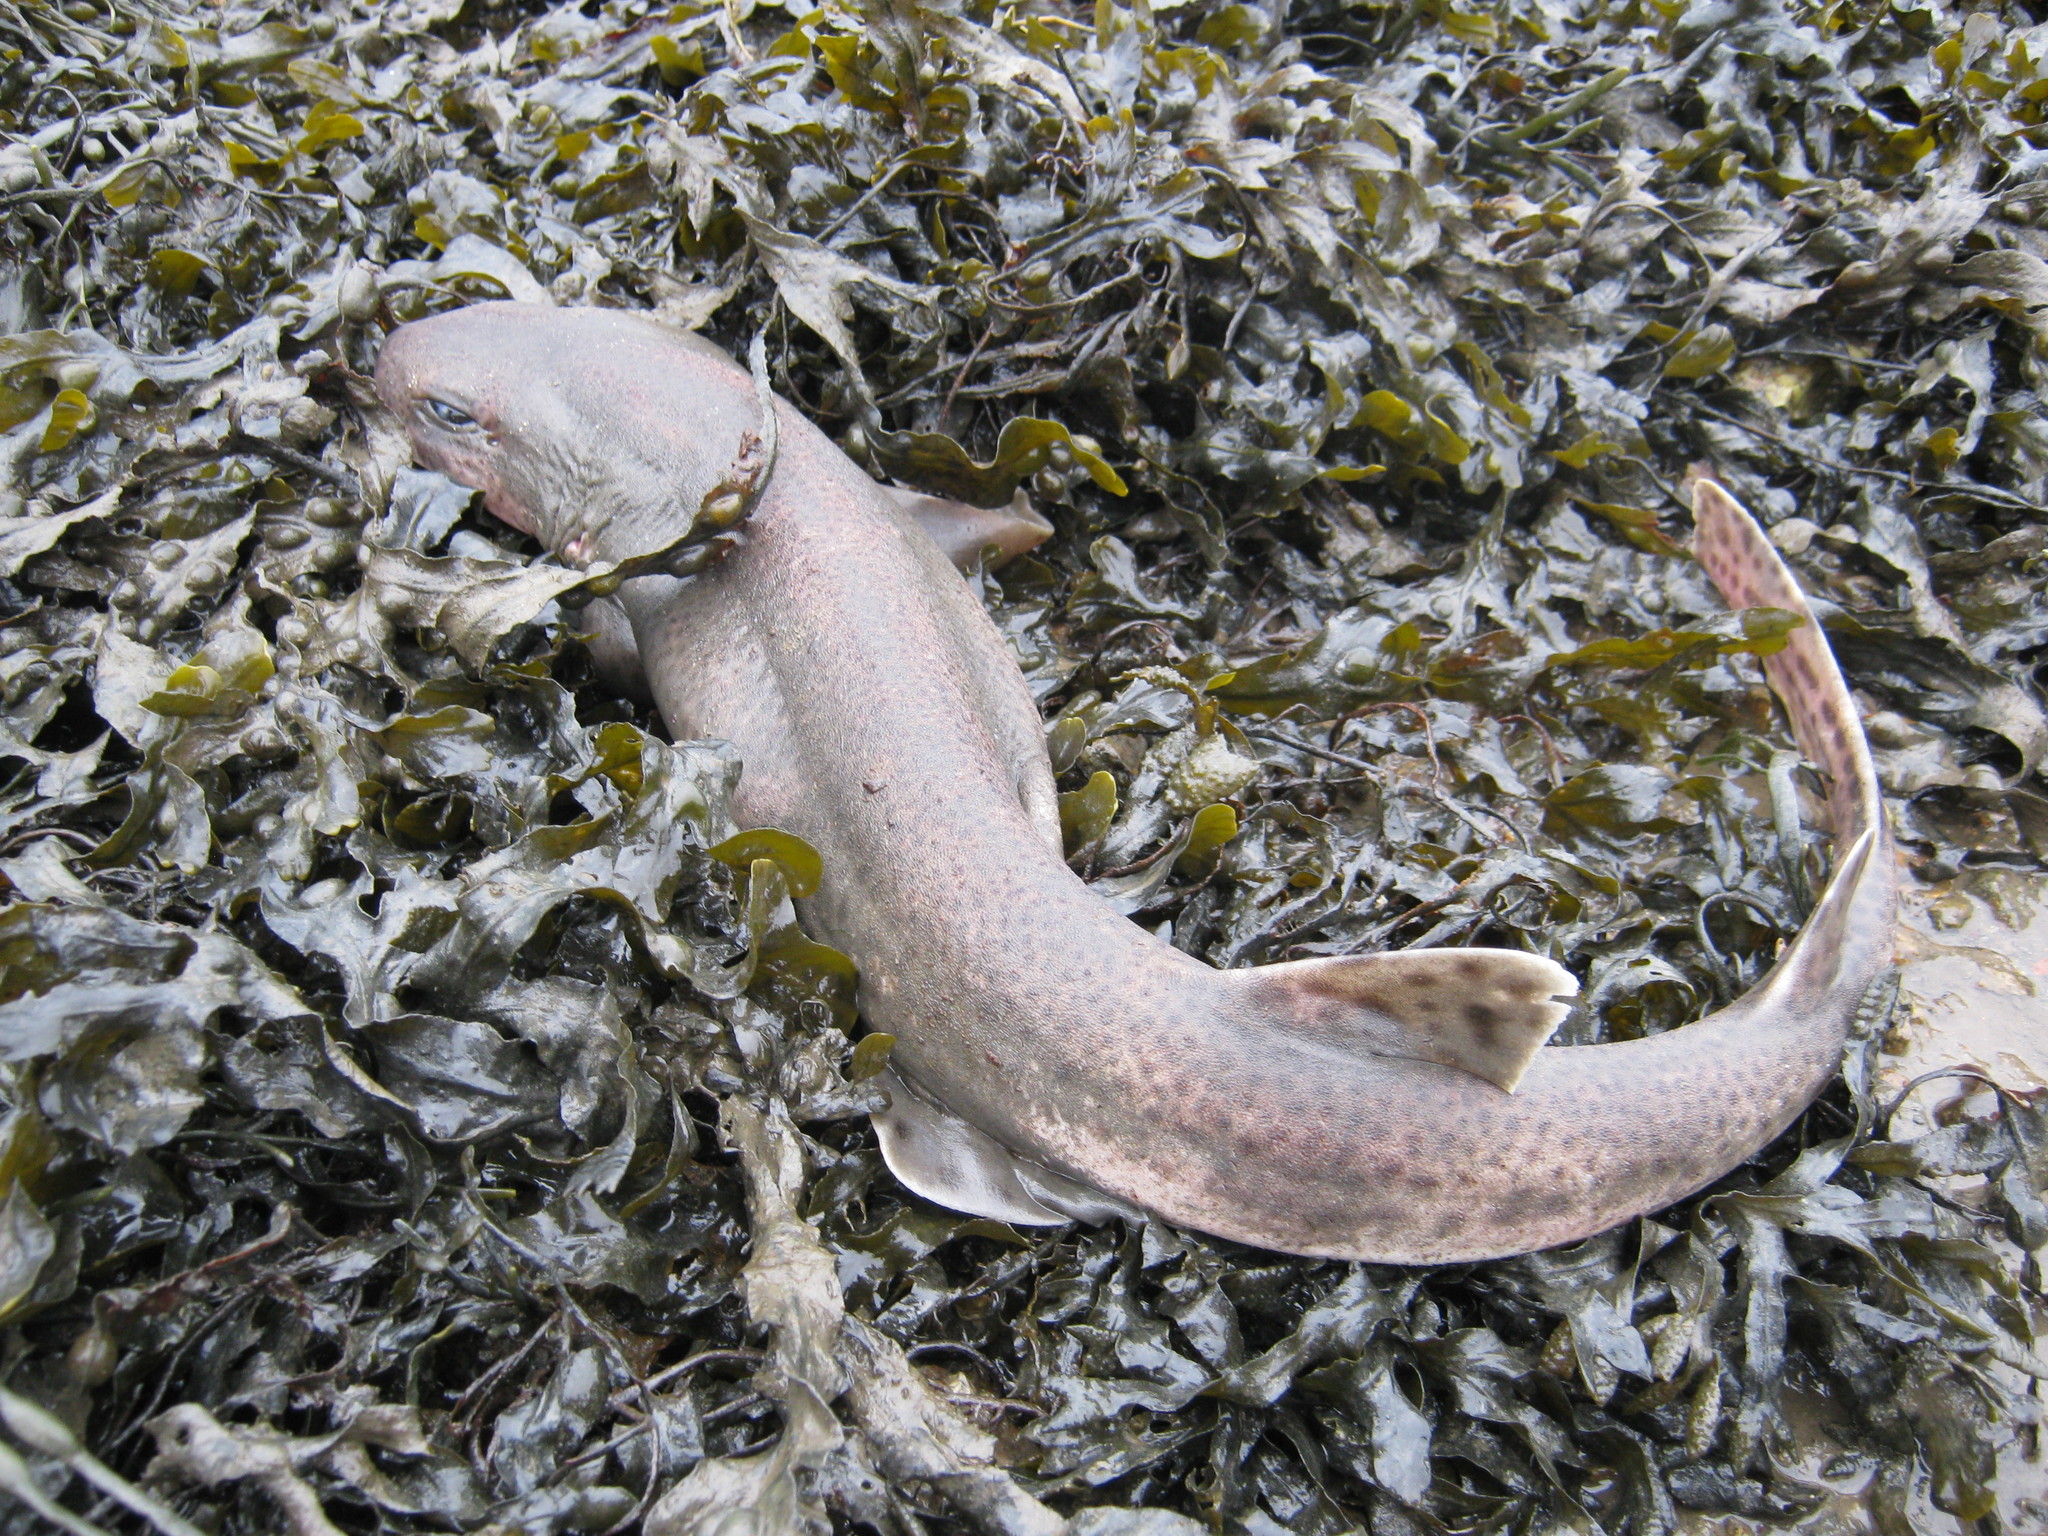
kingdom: Animalia
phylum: Chordata
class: Elasmobranchii
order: Carcharhiniformes
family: Scyliorhinidae
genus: Scyliorhinus
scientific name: Scyliorhinus canicula
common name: Lesser spotted dogfish
